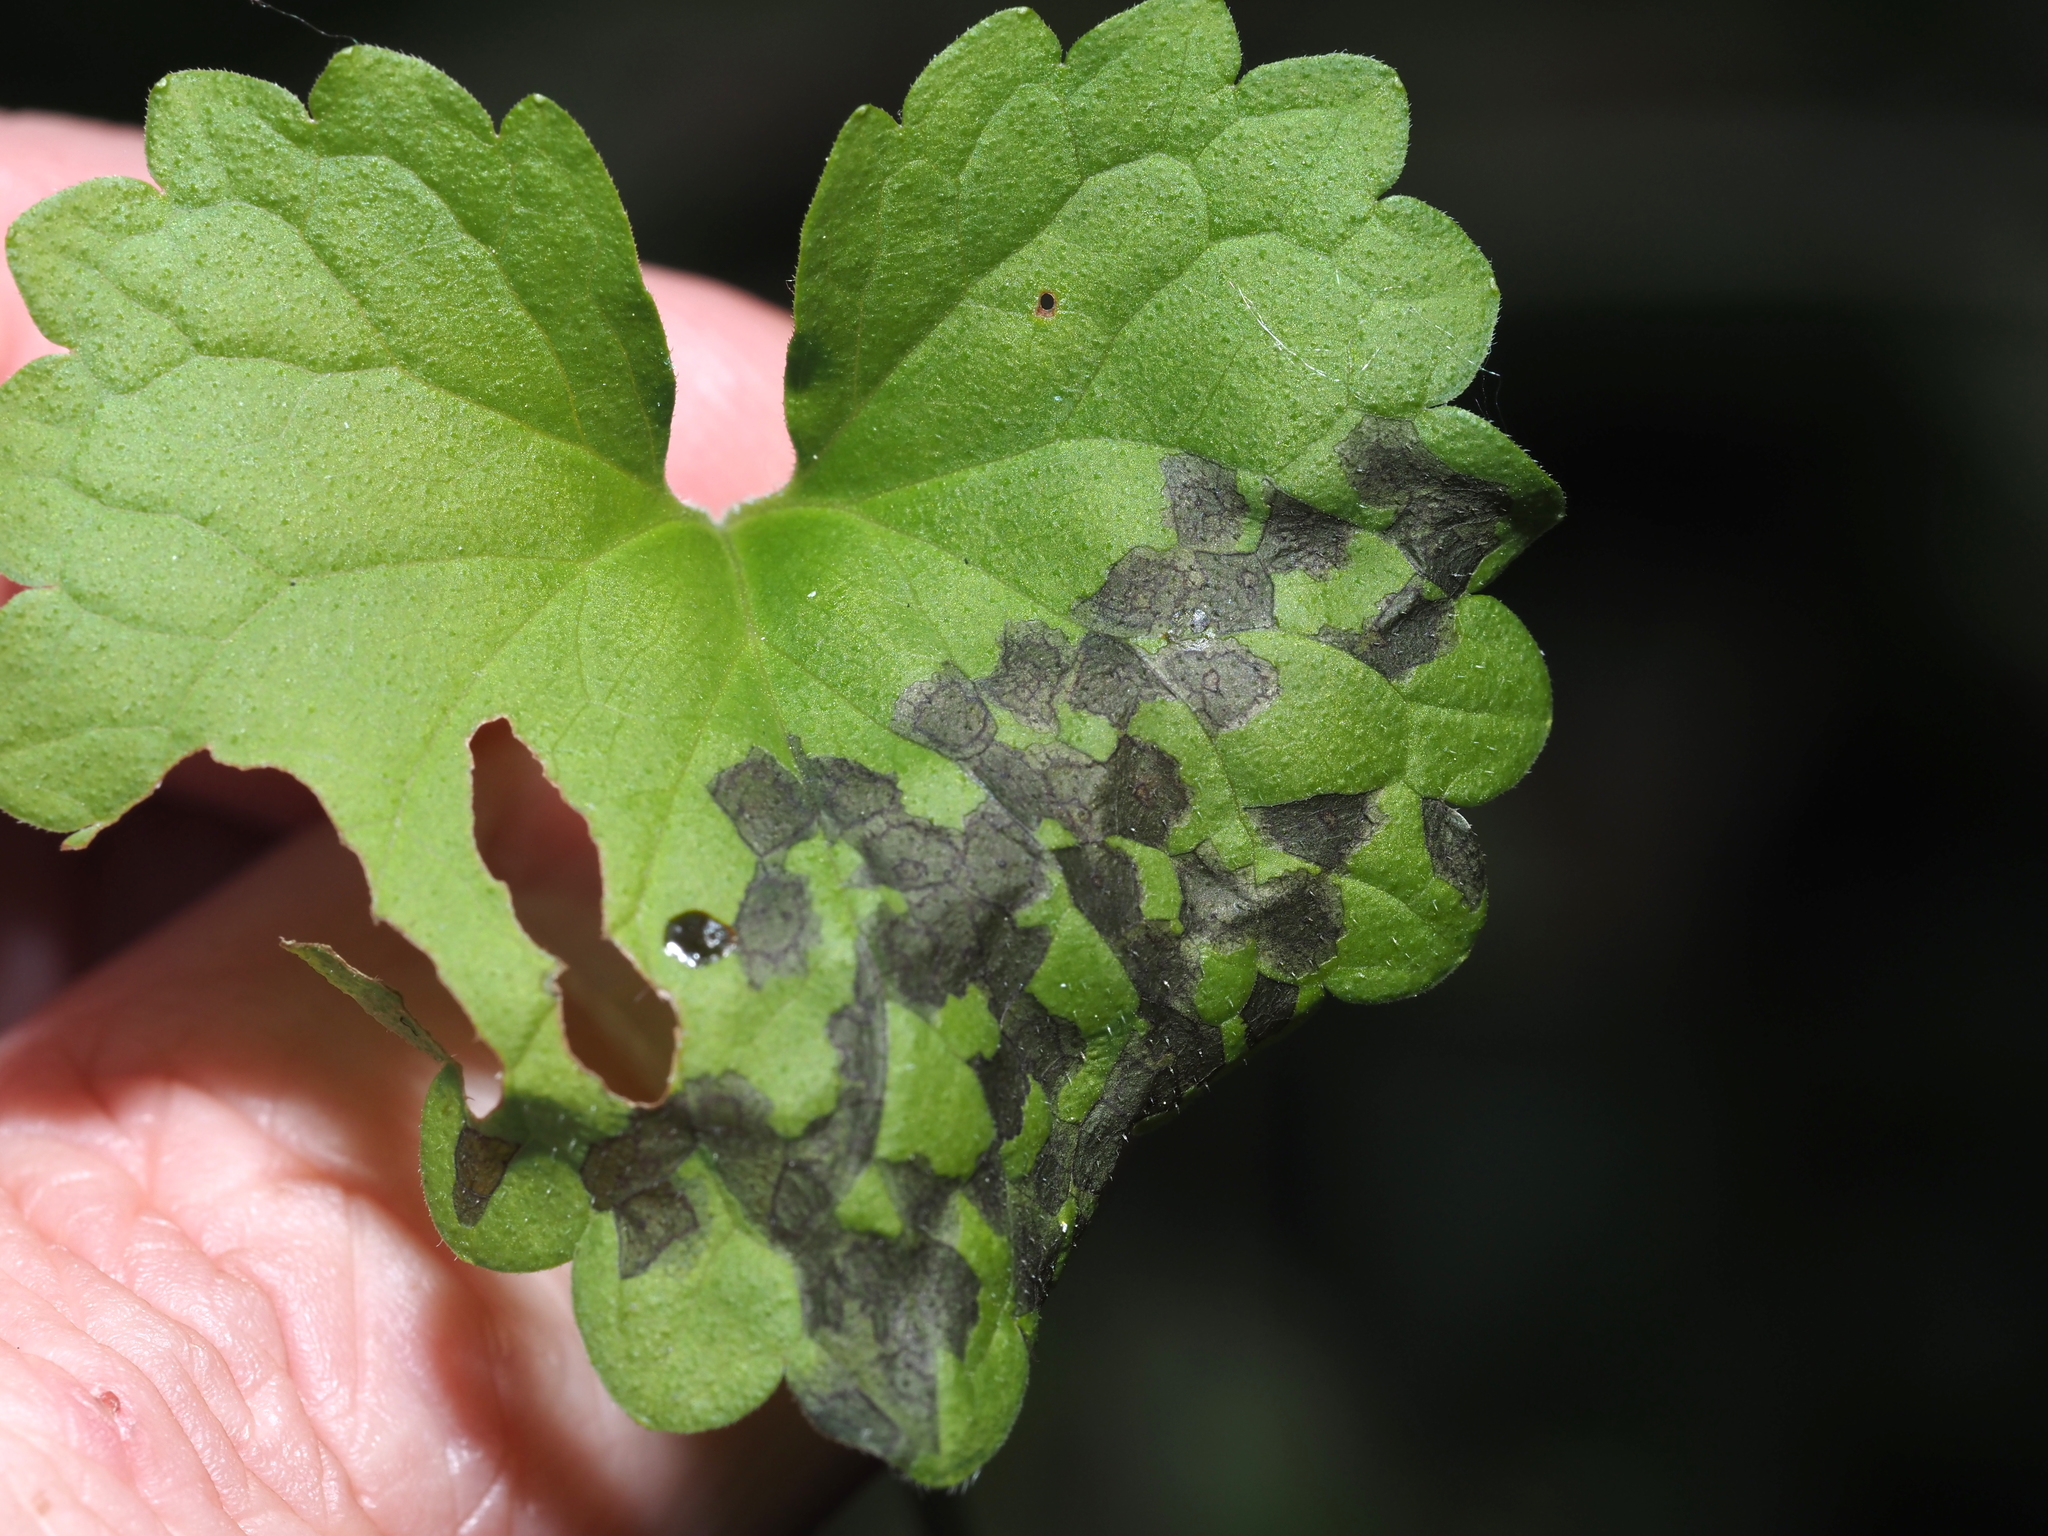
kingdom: Animalia
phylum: Arthropoda
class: Insecta
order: Hemiptera
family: Miridae
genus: Poecilocapsus
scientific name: Poecilocapsus lineatus
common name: Four-lined plant bug
